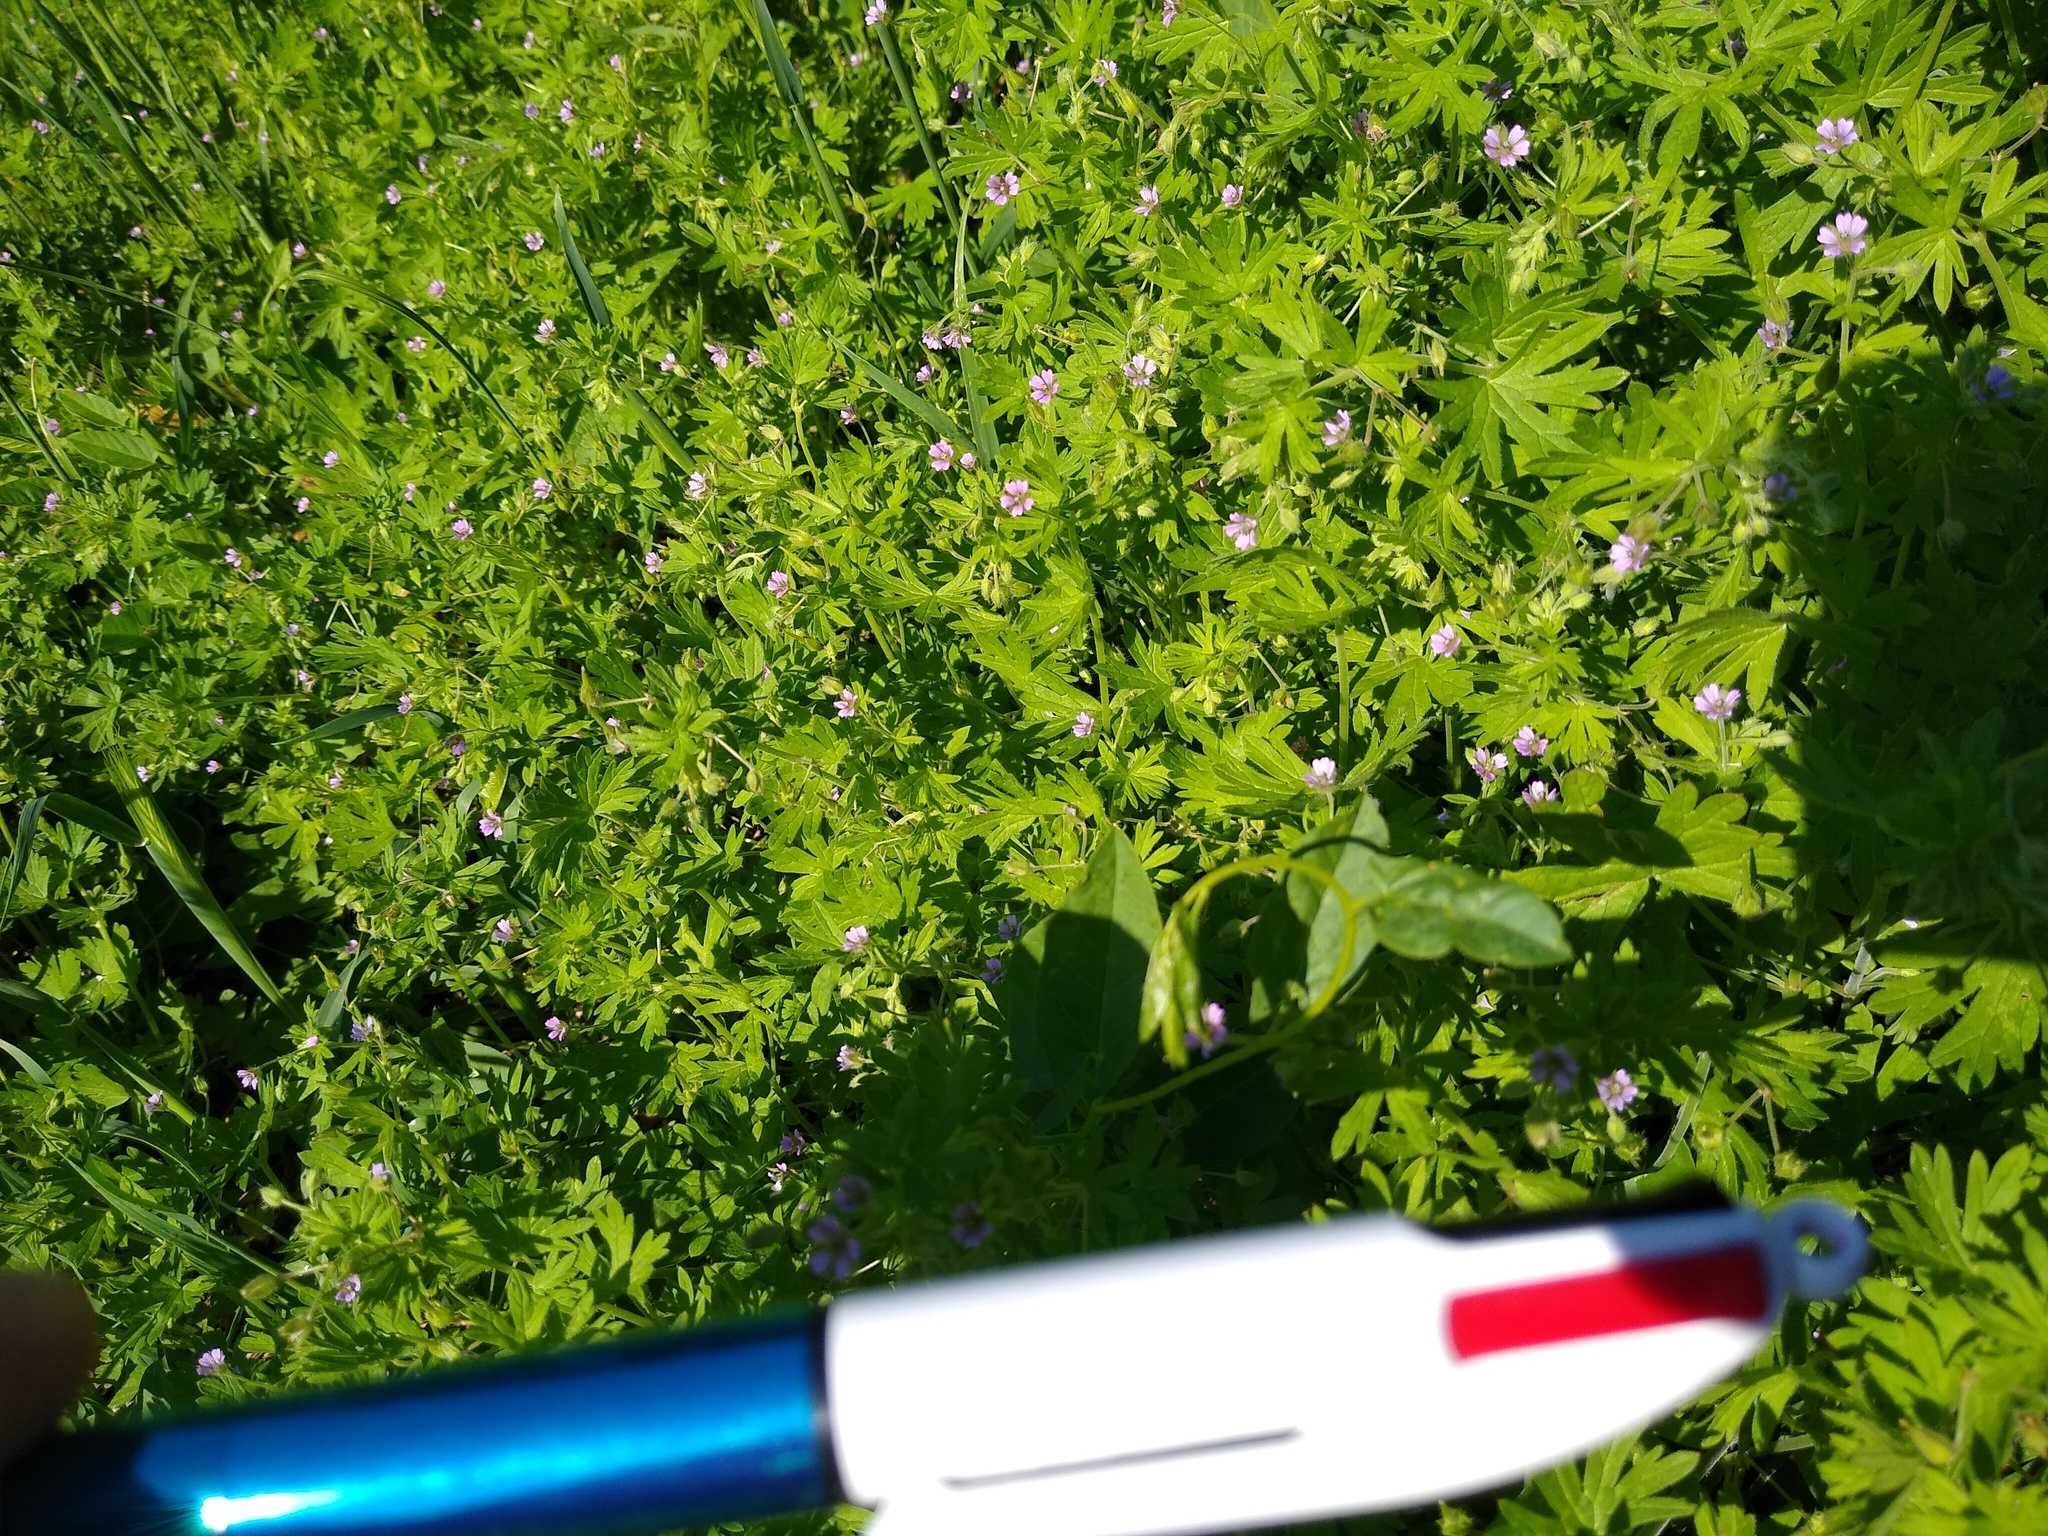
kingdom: Plantae
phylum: Tracheophyta
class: Magnoliopsida
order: Geraniales
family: Geraniaceae
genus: Geranium
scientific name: Geranium pusillum
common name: Small geranium
